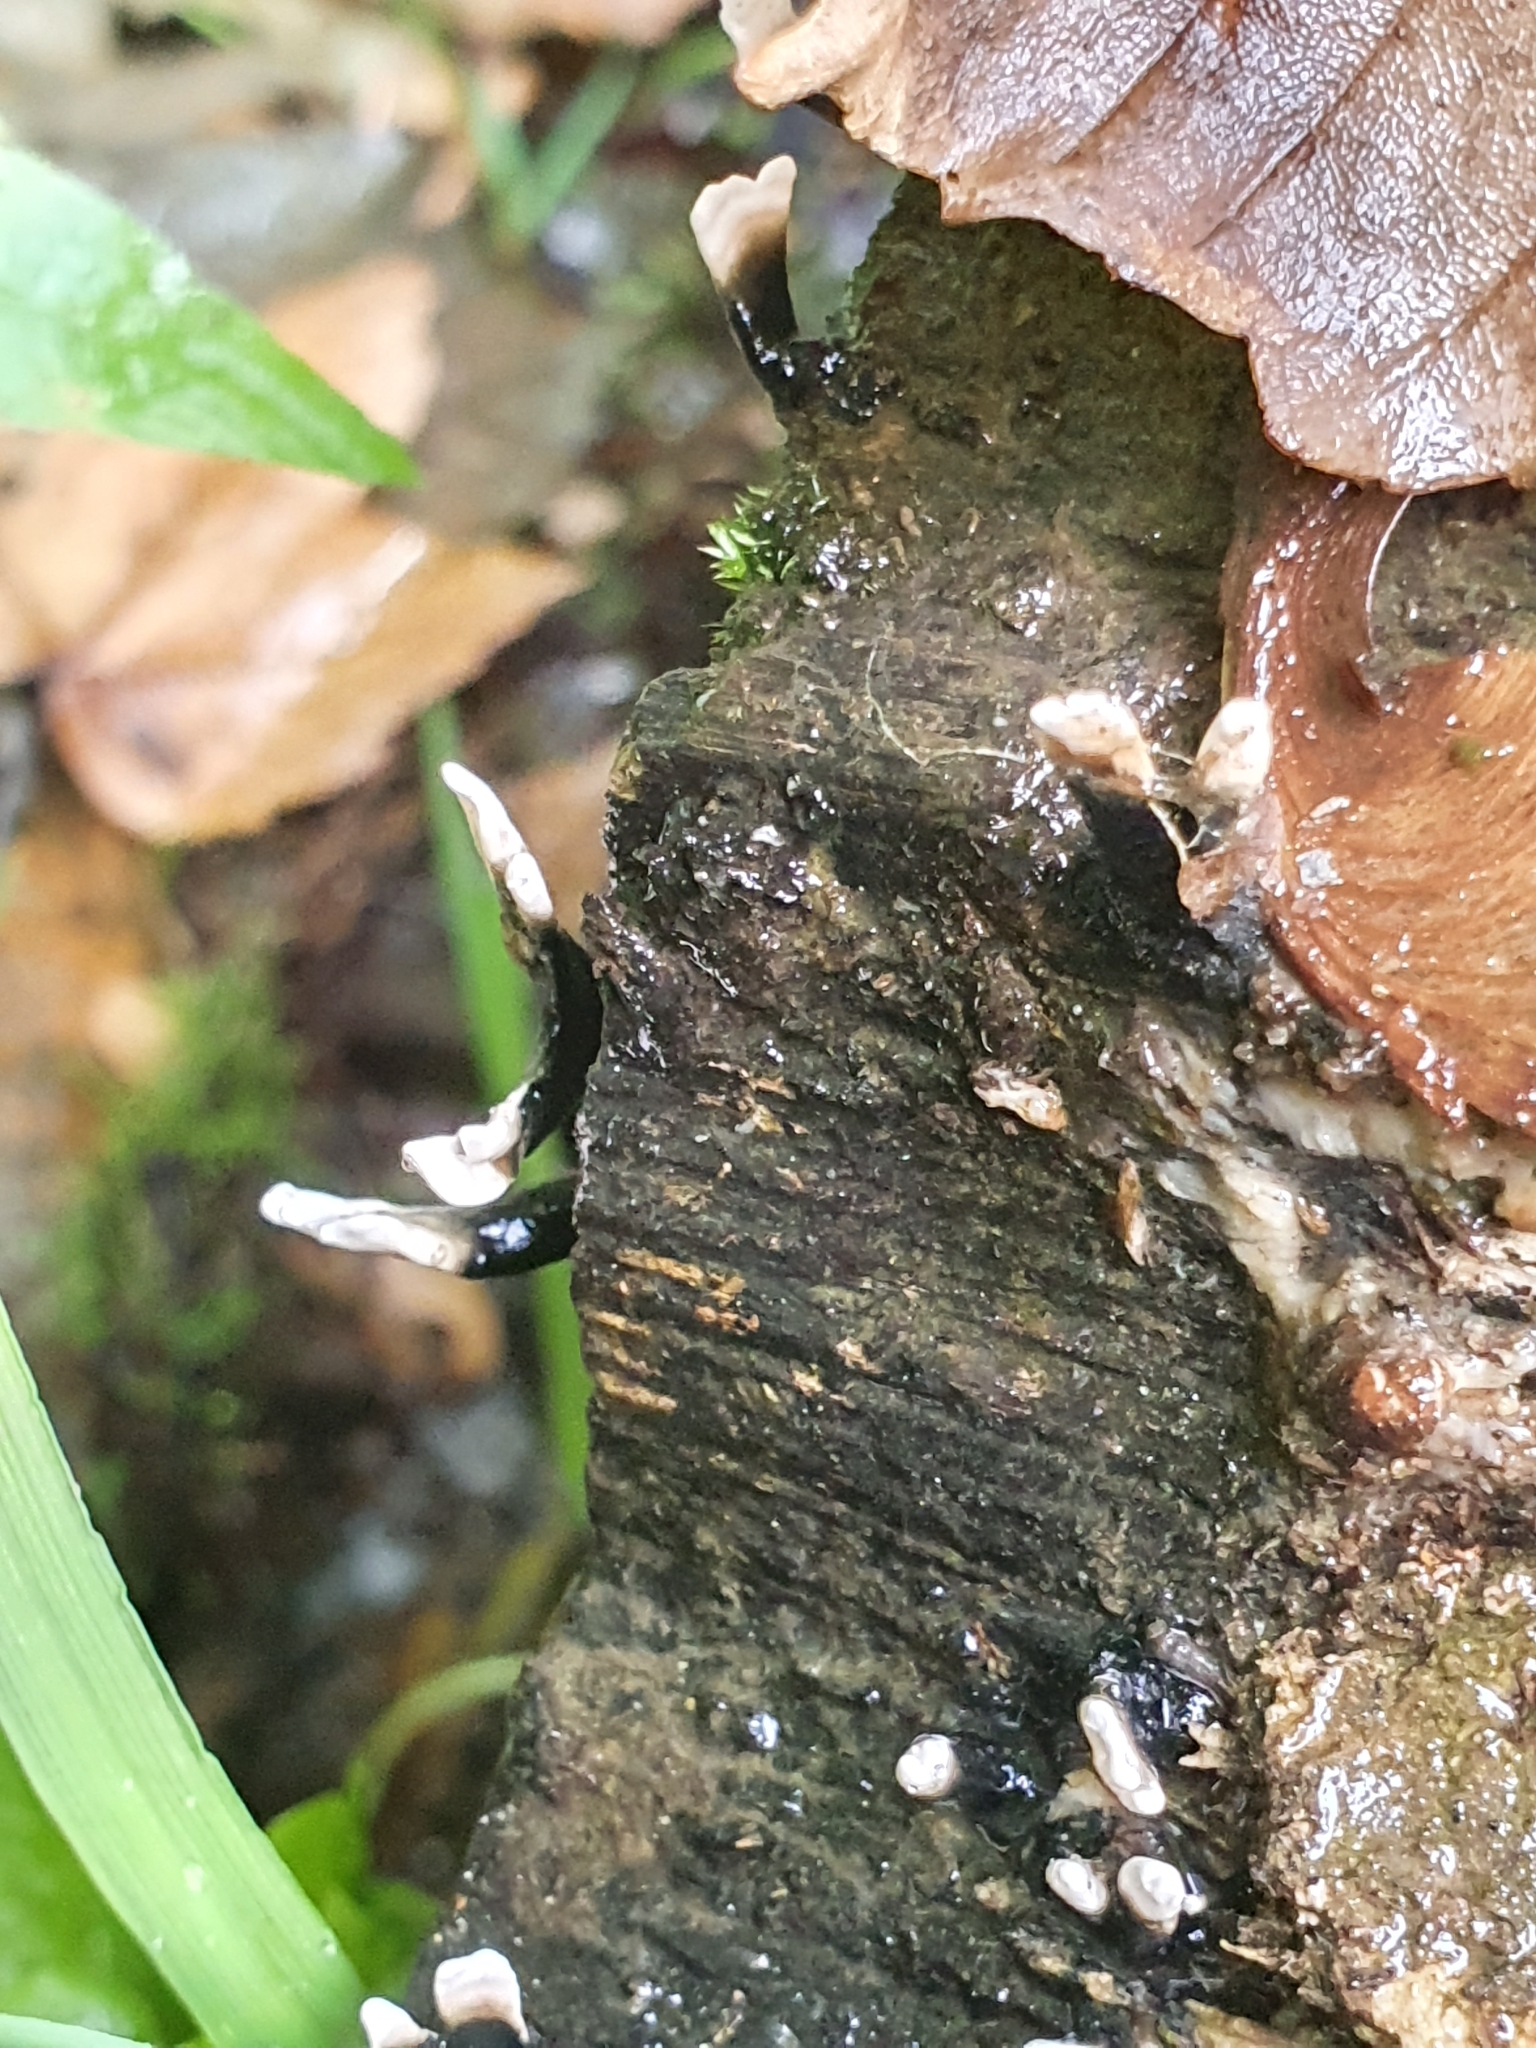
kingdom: Fungi
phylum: Ascomycota
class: Sordariomycetes
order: Xylariales
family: Xylariaceae
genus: Xylaria
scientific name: Xylaria hypoxylon
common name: Candle-snuff fungus
